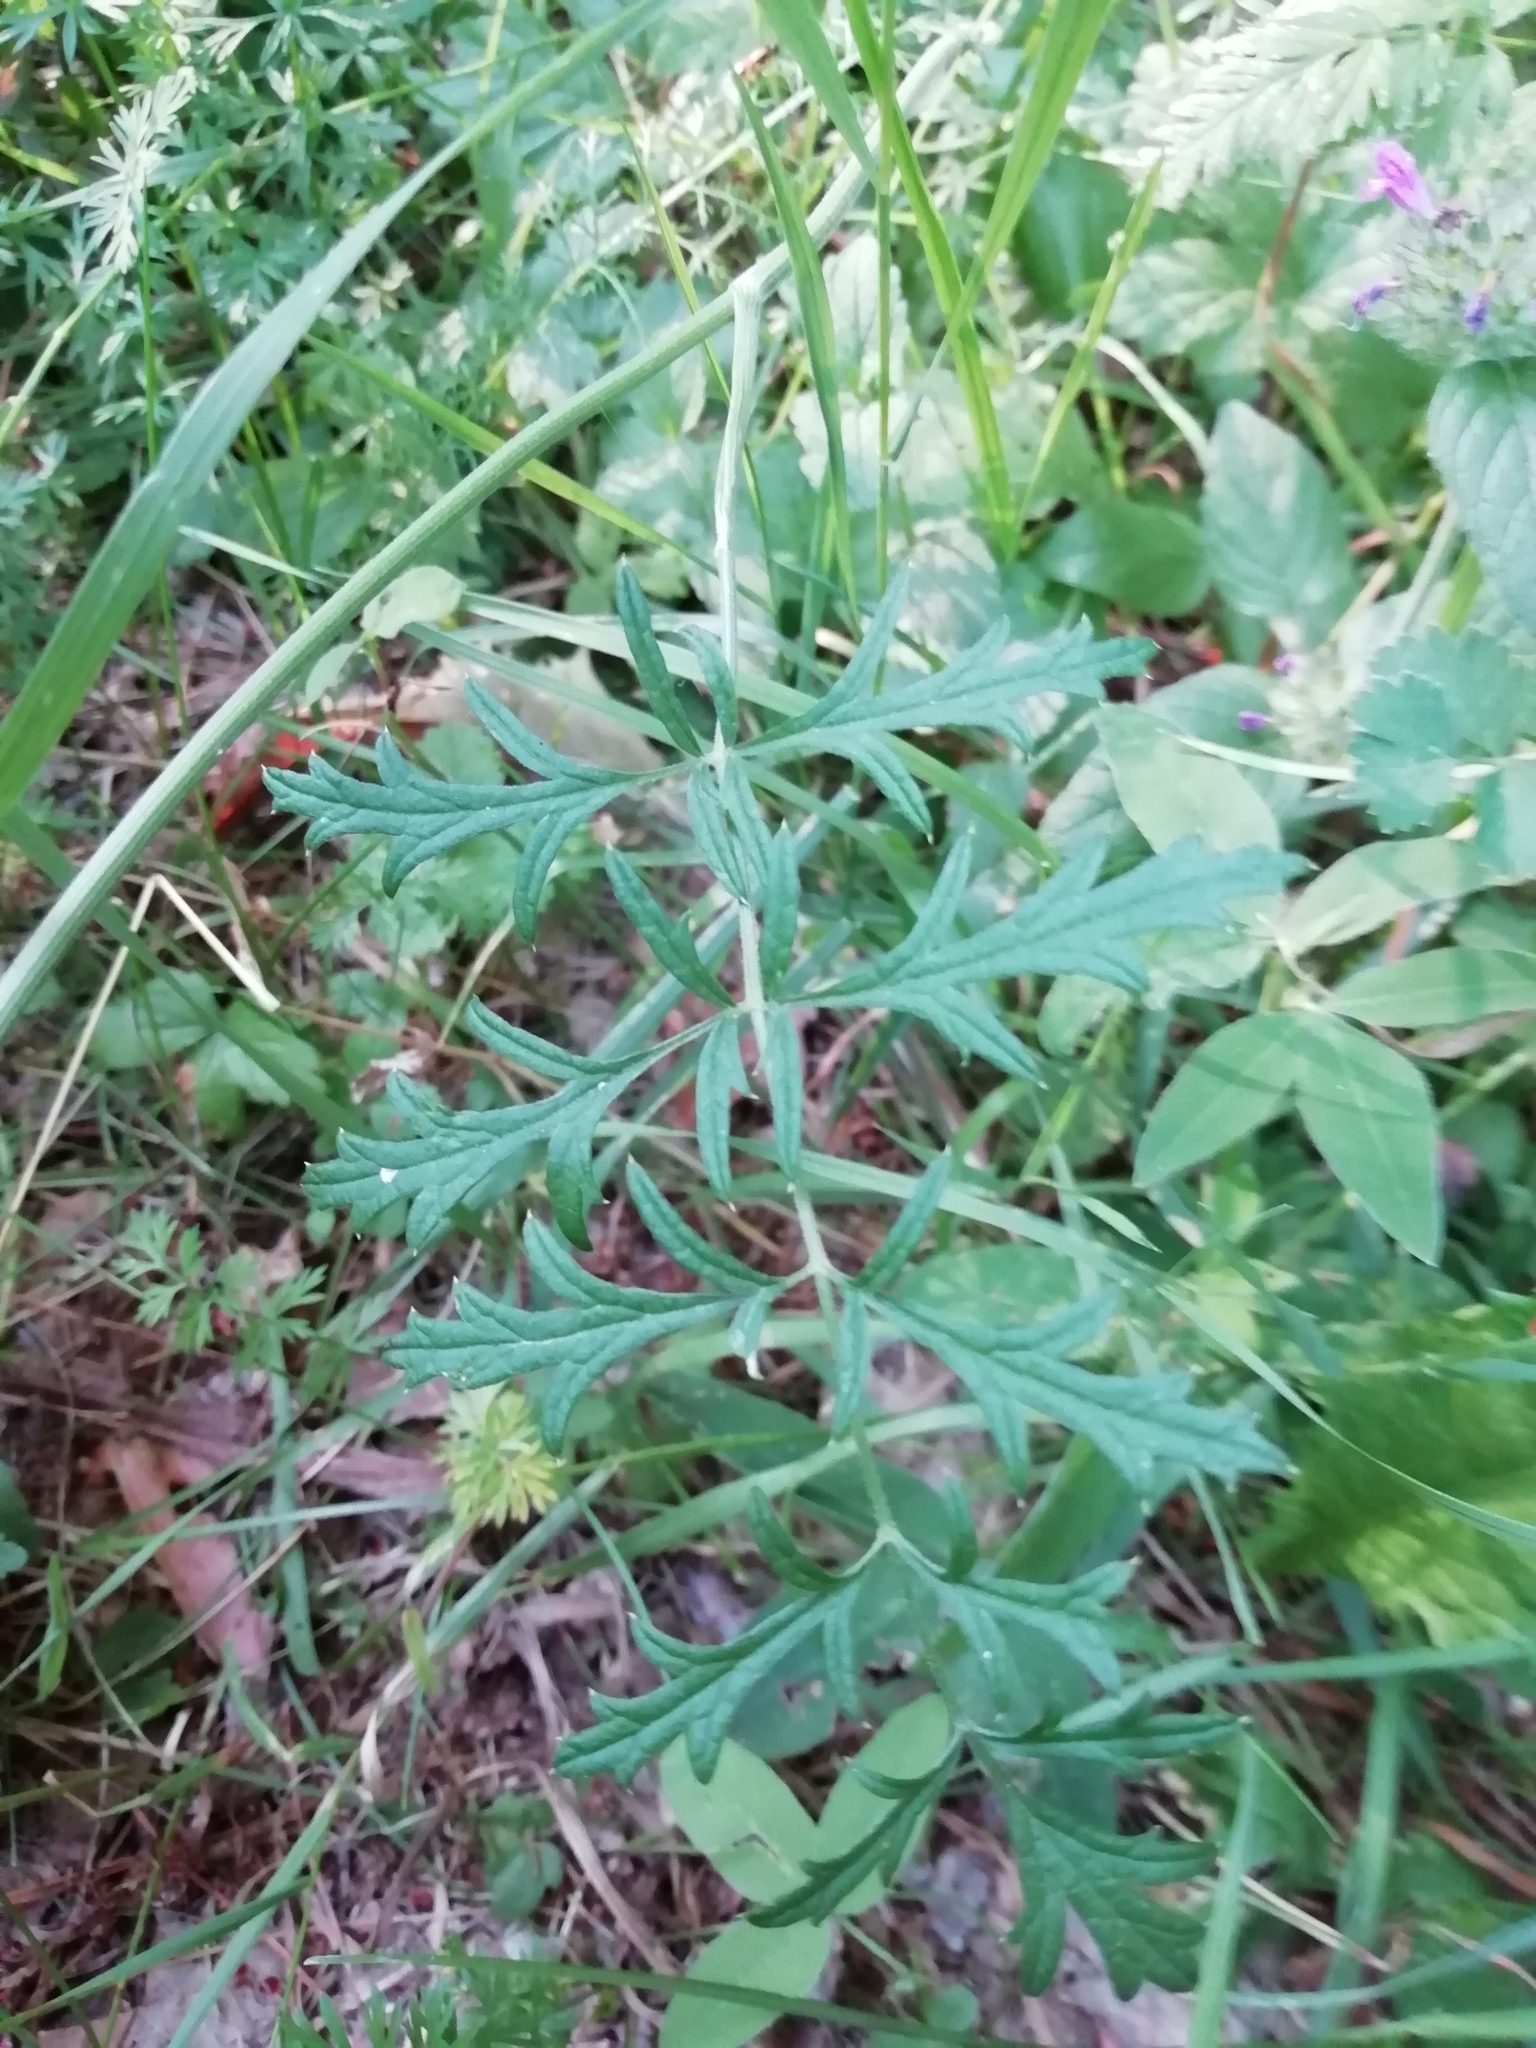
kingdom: Plantae
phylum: Tracheophyta
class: Magnoliopsida
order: Apiales
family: Apiaceae
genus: Pimpinella
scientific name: Pimpinella saxifraga
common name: Burnet-saxifrage
